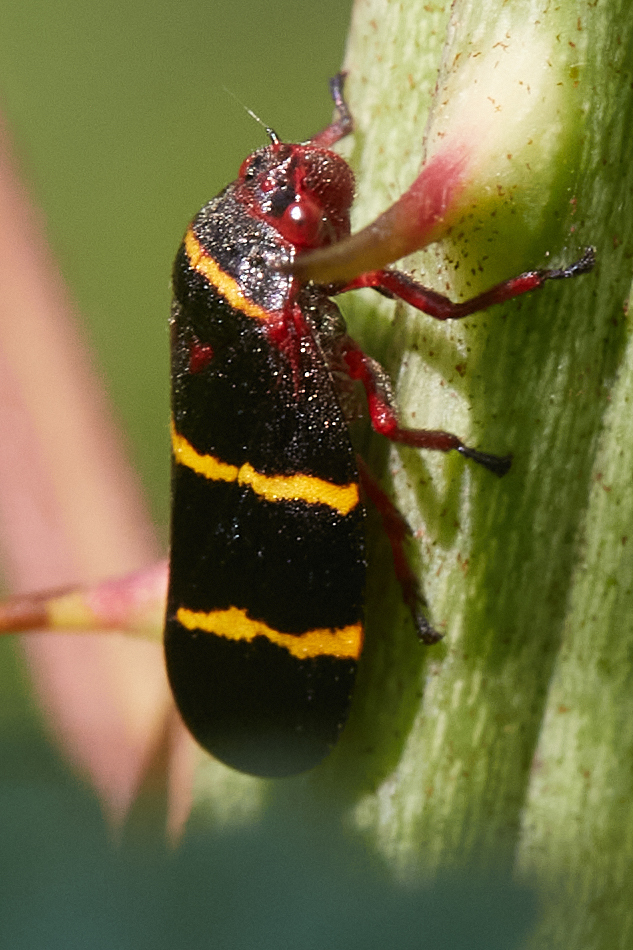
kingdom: Animalia
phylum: Arthropoda
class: Insecta
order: Hemiptera
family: Cercopidae
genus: Prosapia
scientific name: Prosapia bicincta
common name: Twolined spittlebug
